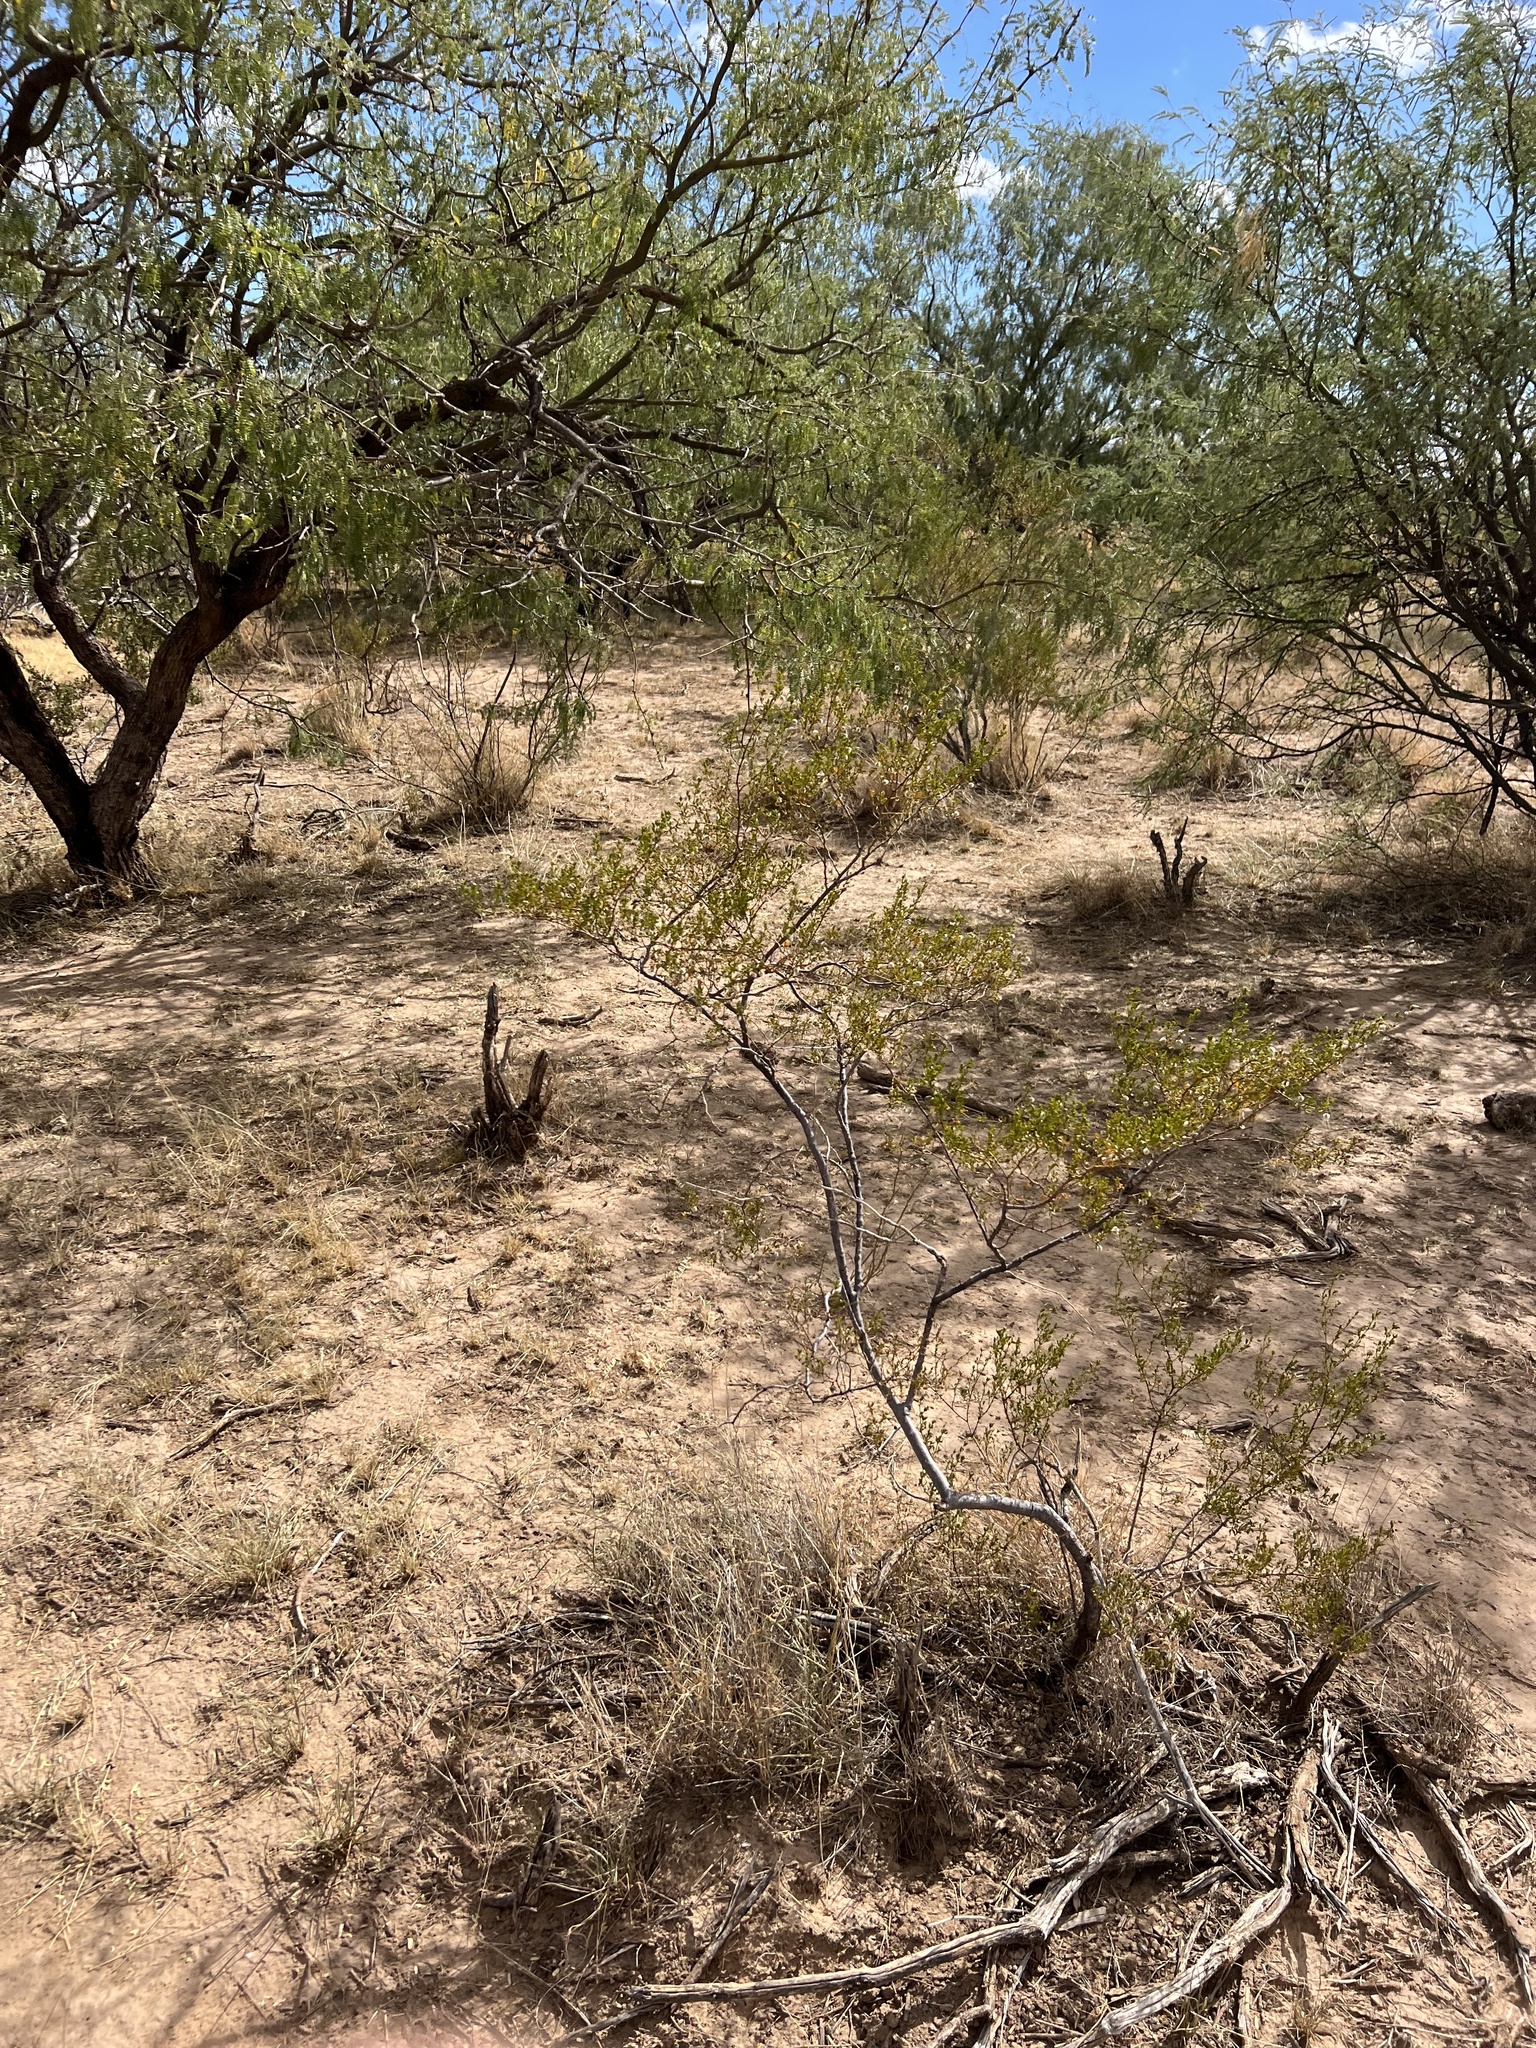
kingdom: Plantae
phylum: Tracheophyta
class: Magnoliopsida
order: Zygophyllales
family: Zygophyllaceae
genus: Larrea
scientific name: Larrea tridentata
